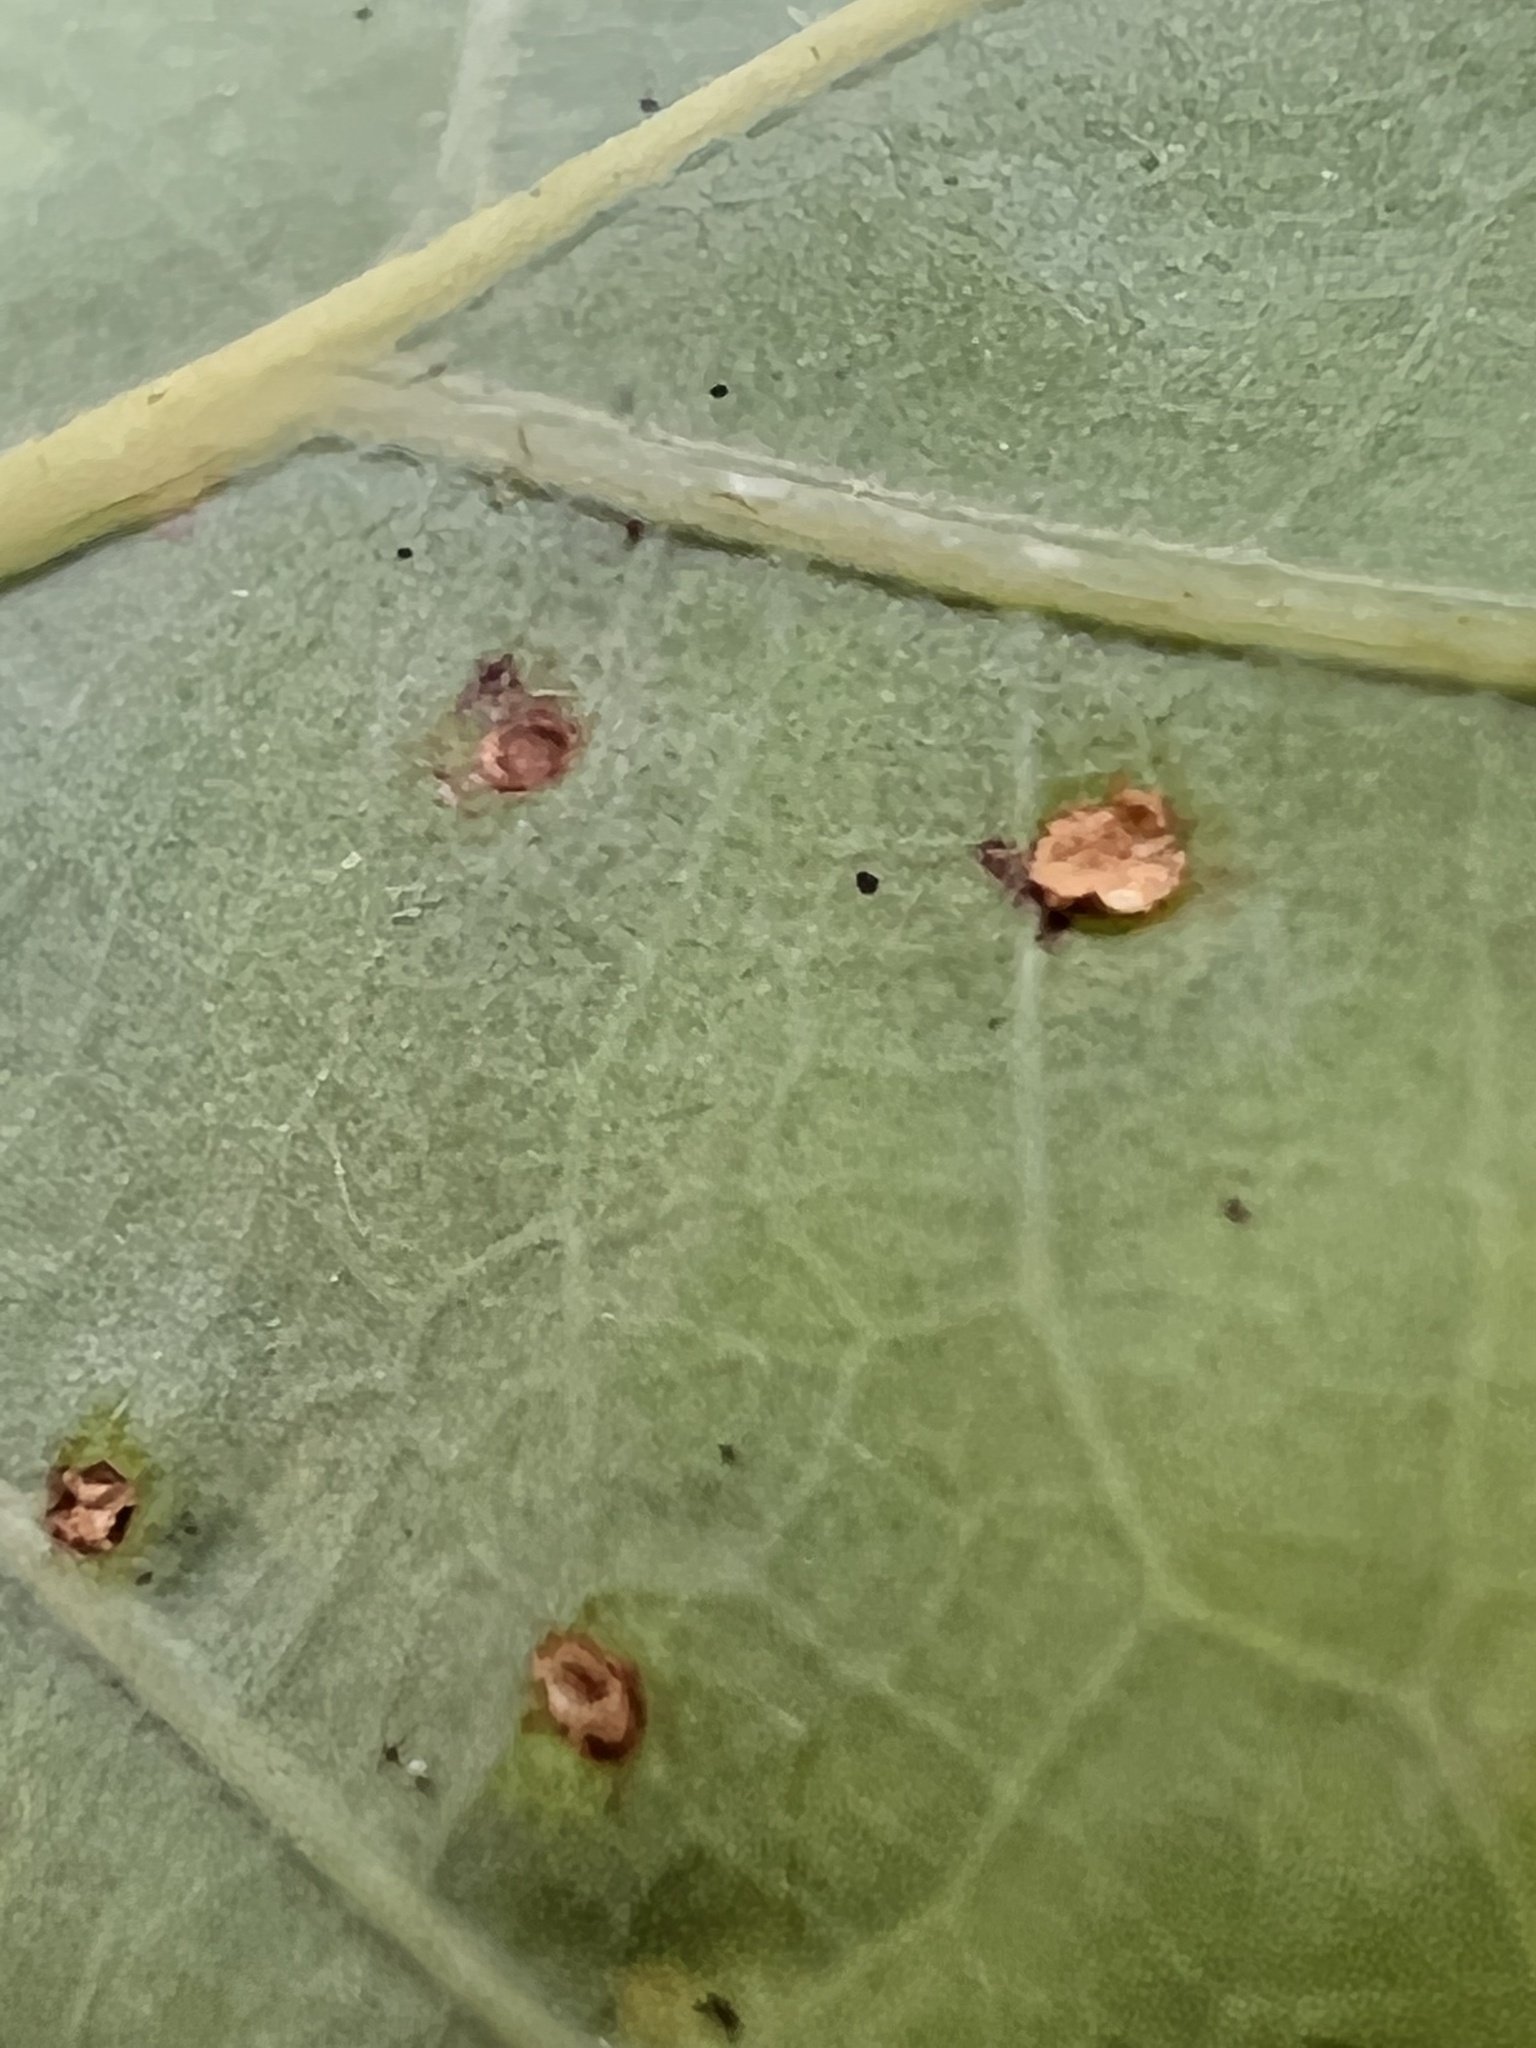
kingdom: Animalia
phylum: Arthropoda
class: Insecta
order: Hymenoptera
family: Cynipidae
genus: Neuroterus
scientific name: Neuroterus
